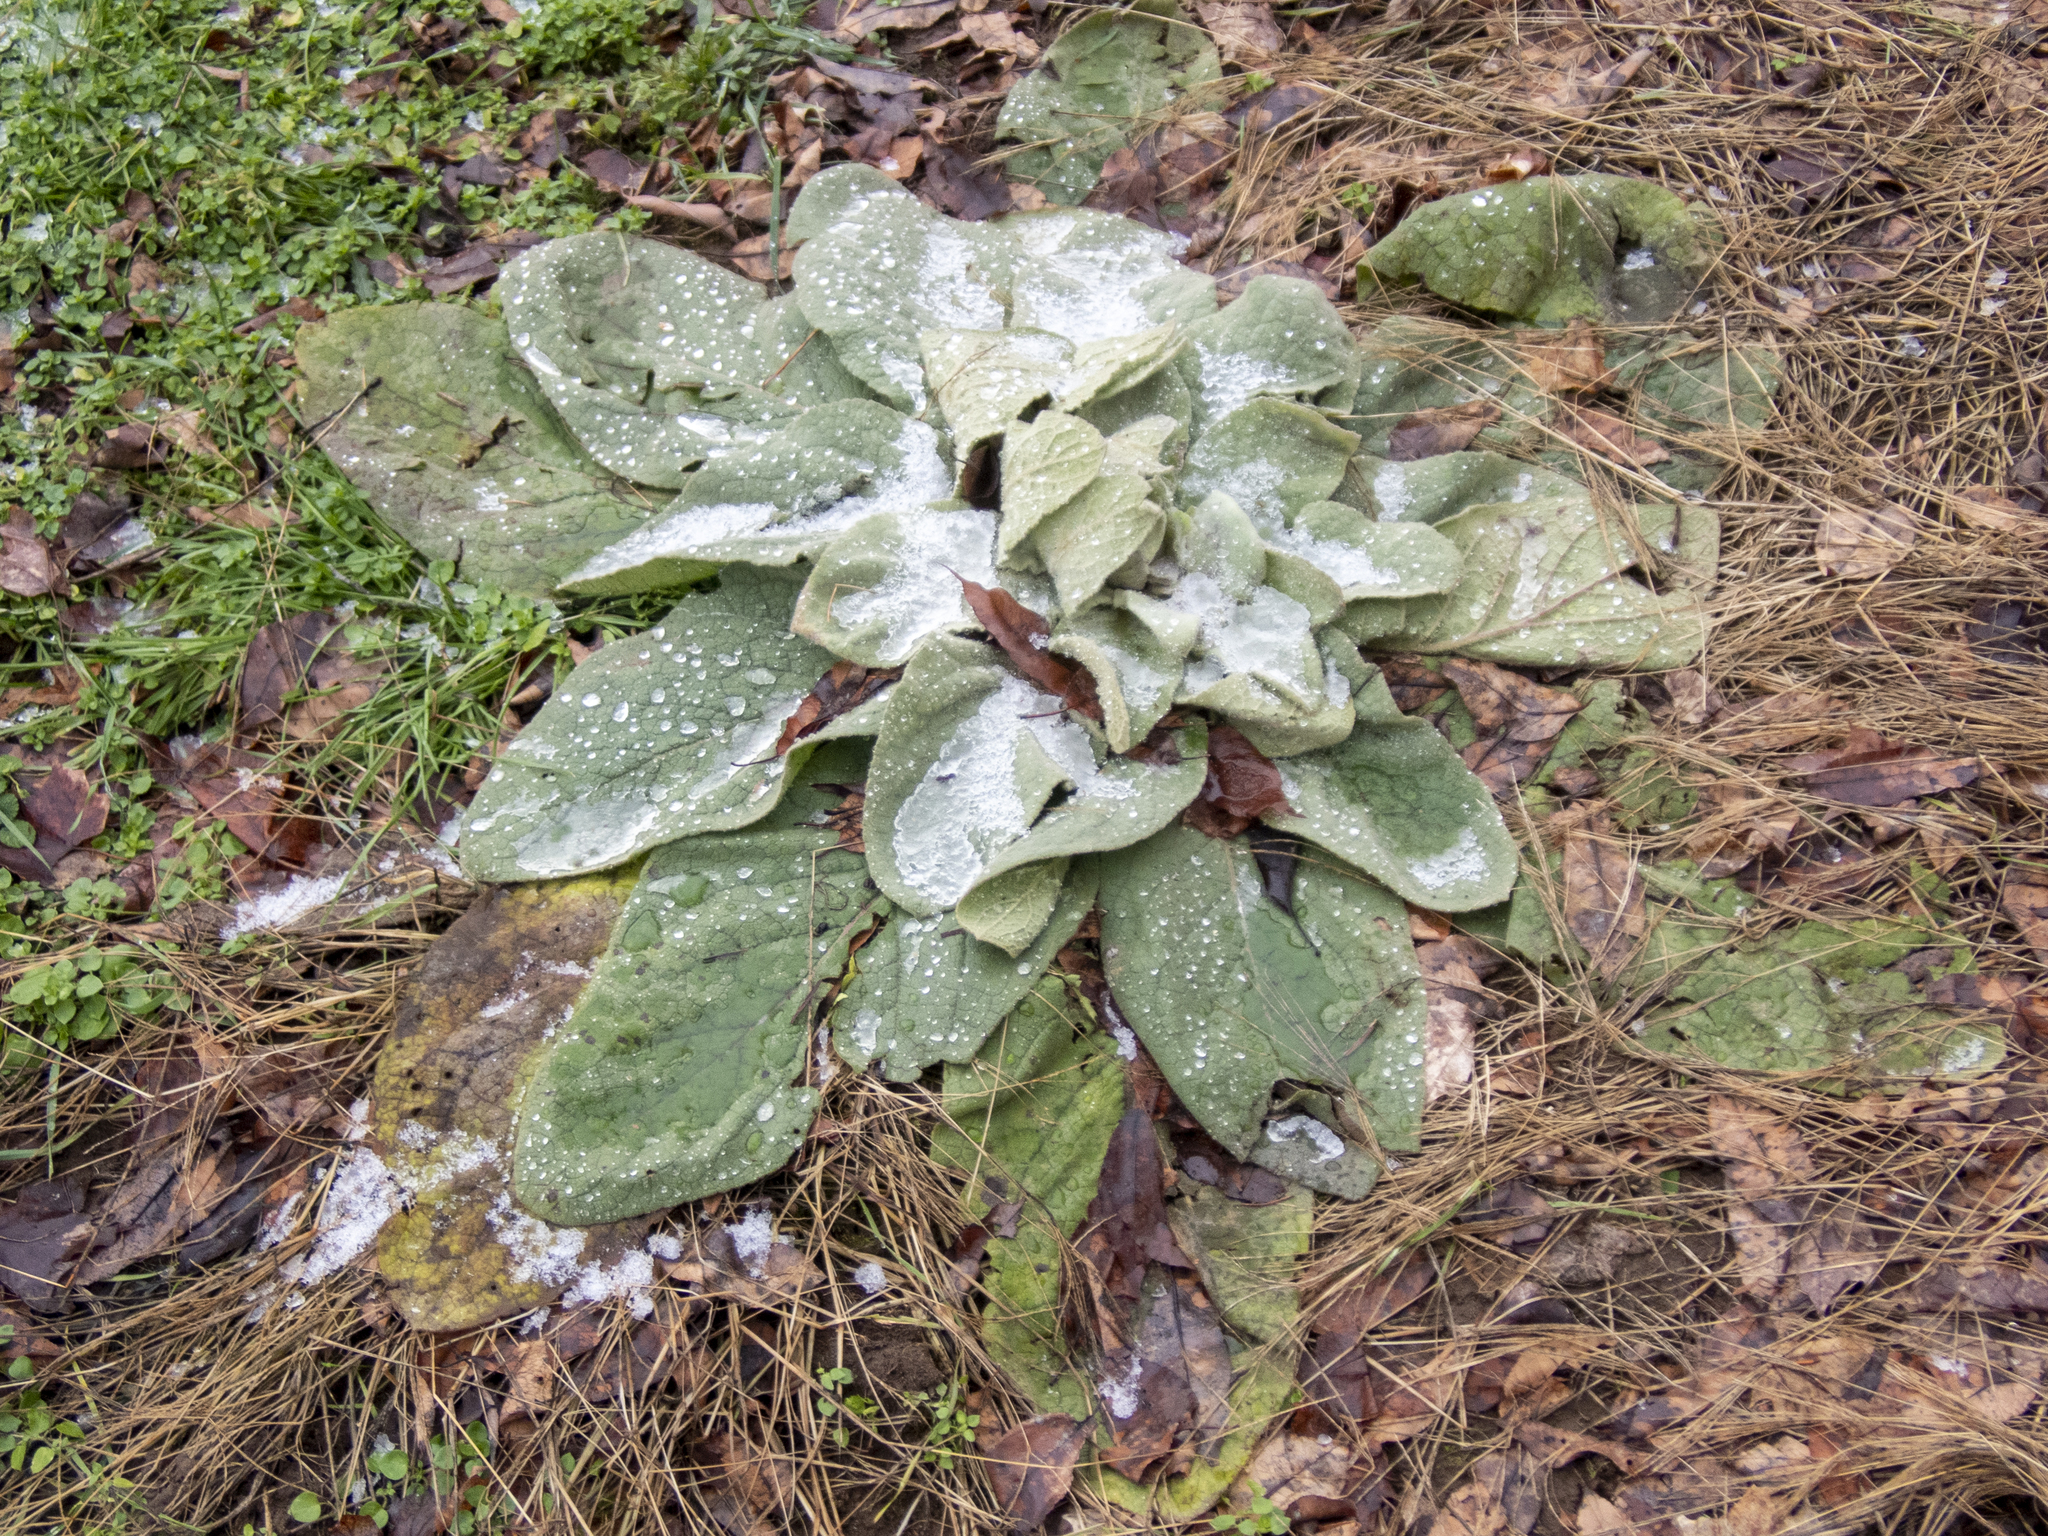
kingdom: Plantae
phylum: Tracheophyta
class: Magnoliopsida
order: Lamiales
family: Scrophulariaceae
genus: Verbascum
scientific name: Verbascum thapsus
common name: Common mullein
